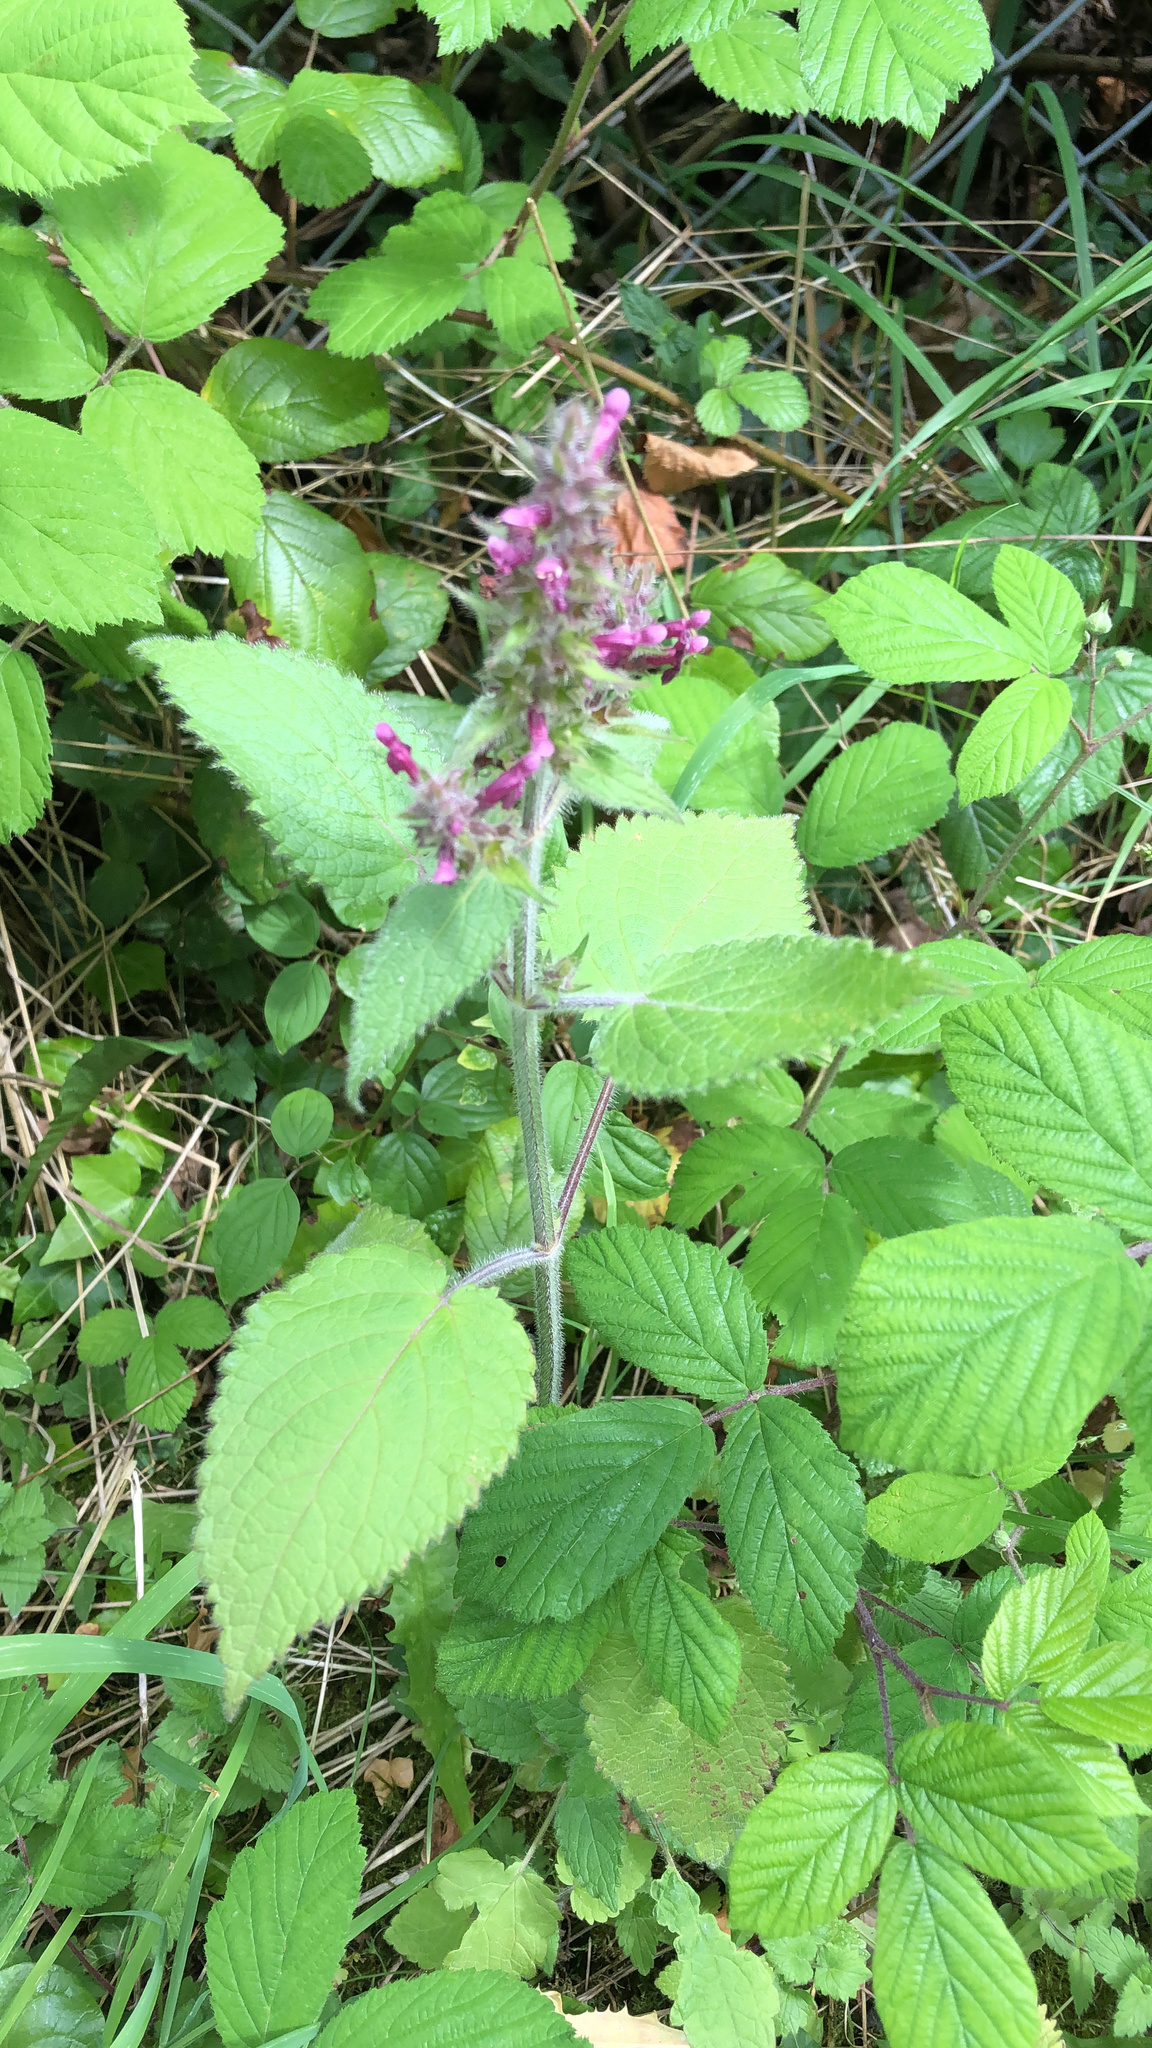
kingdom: Plantae
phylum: Tracheophyta
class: Magnoliopsida
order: Lamiales
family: Lamiaceae
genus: Stachys
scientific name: Stachys sylvatica
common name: Hedge woundwort
